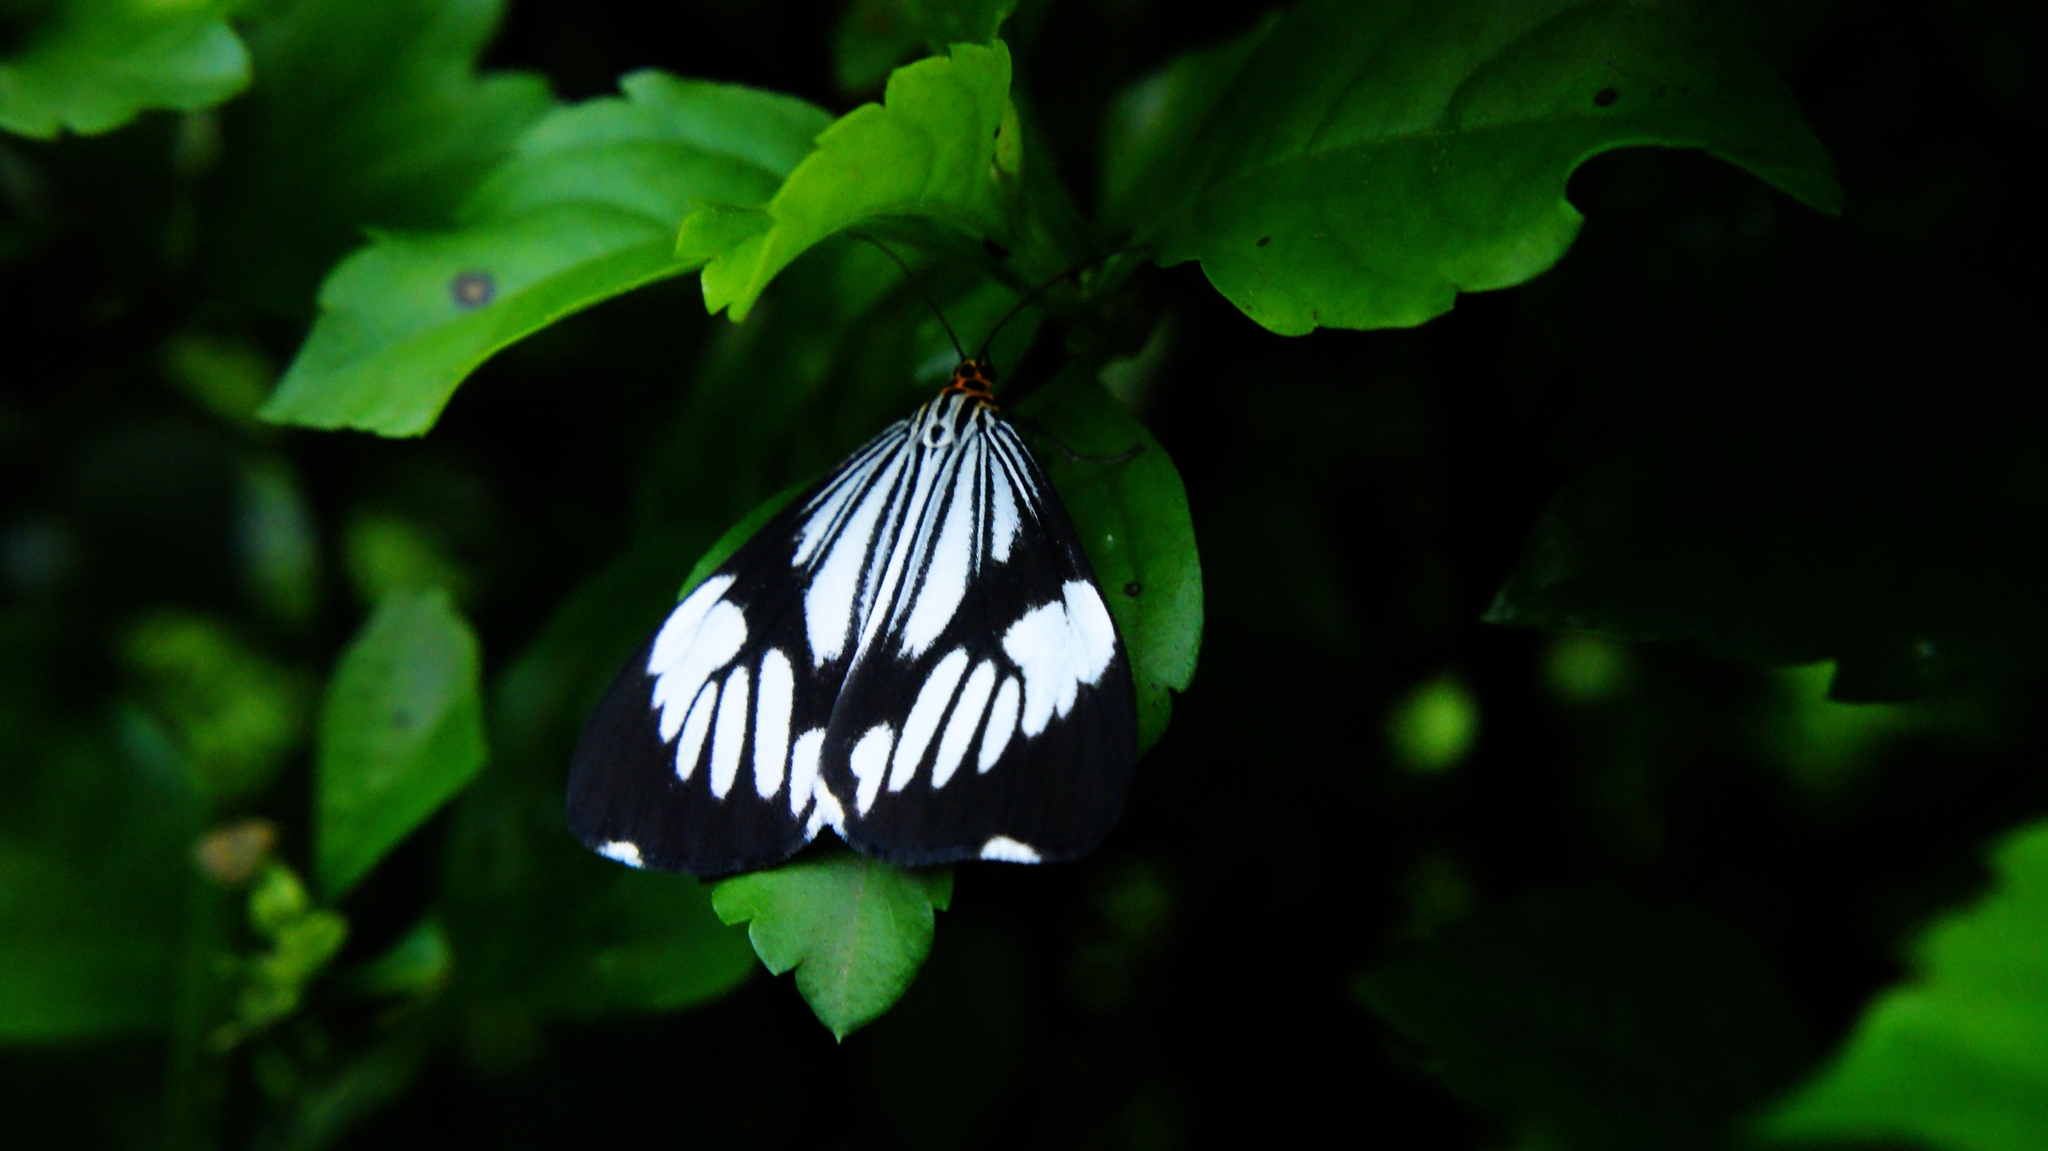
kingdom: Animalia
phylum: Arthropoda
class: Insecta
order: Lepidoptera
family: Erebidae
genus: Nyctemera
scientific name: Nyctemera coleta
